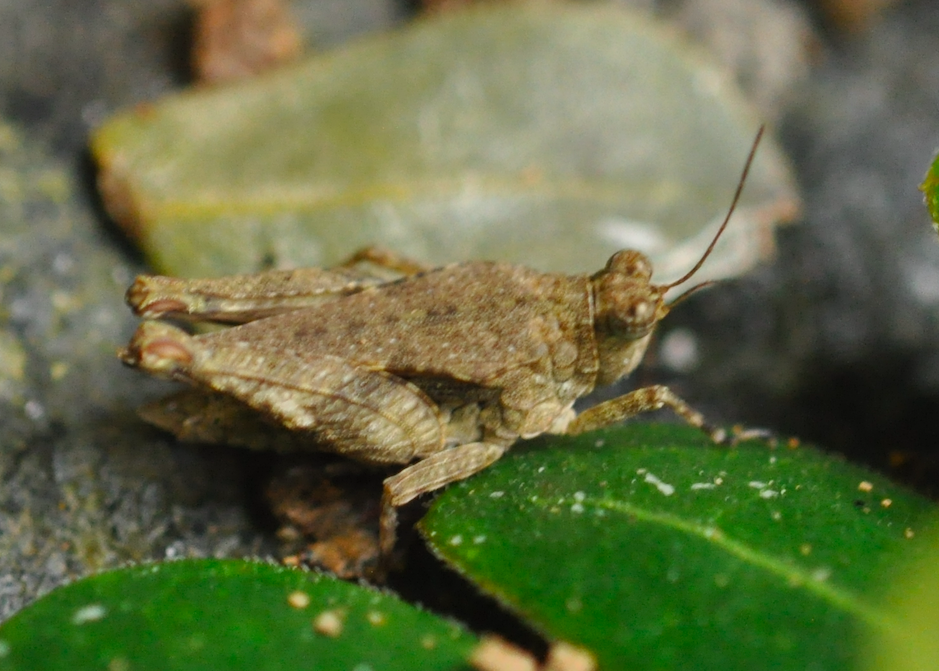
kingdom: Animalia
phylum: Arthropoda
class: Insecta
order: Orthoptera
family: Tetrigidae
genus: Paratettix
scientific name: Paratettix cinereus
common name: Madagascar common pygmy grasshopper
